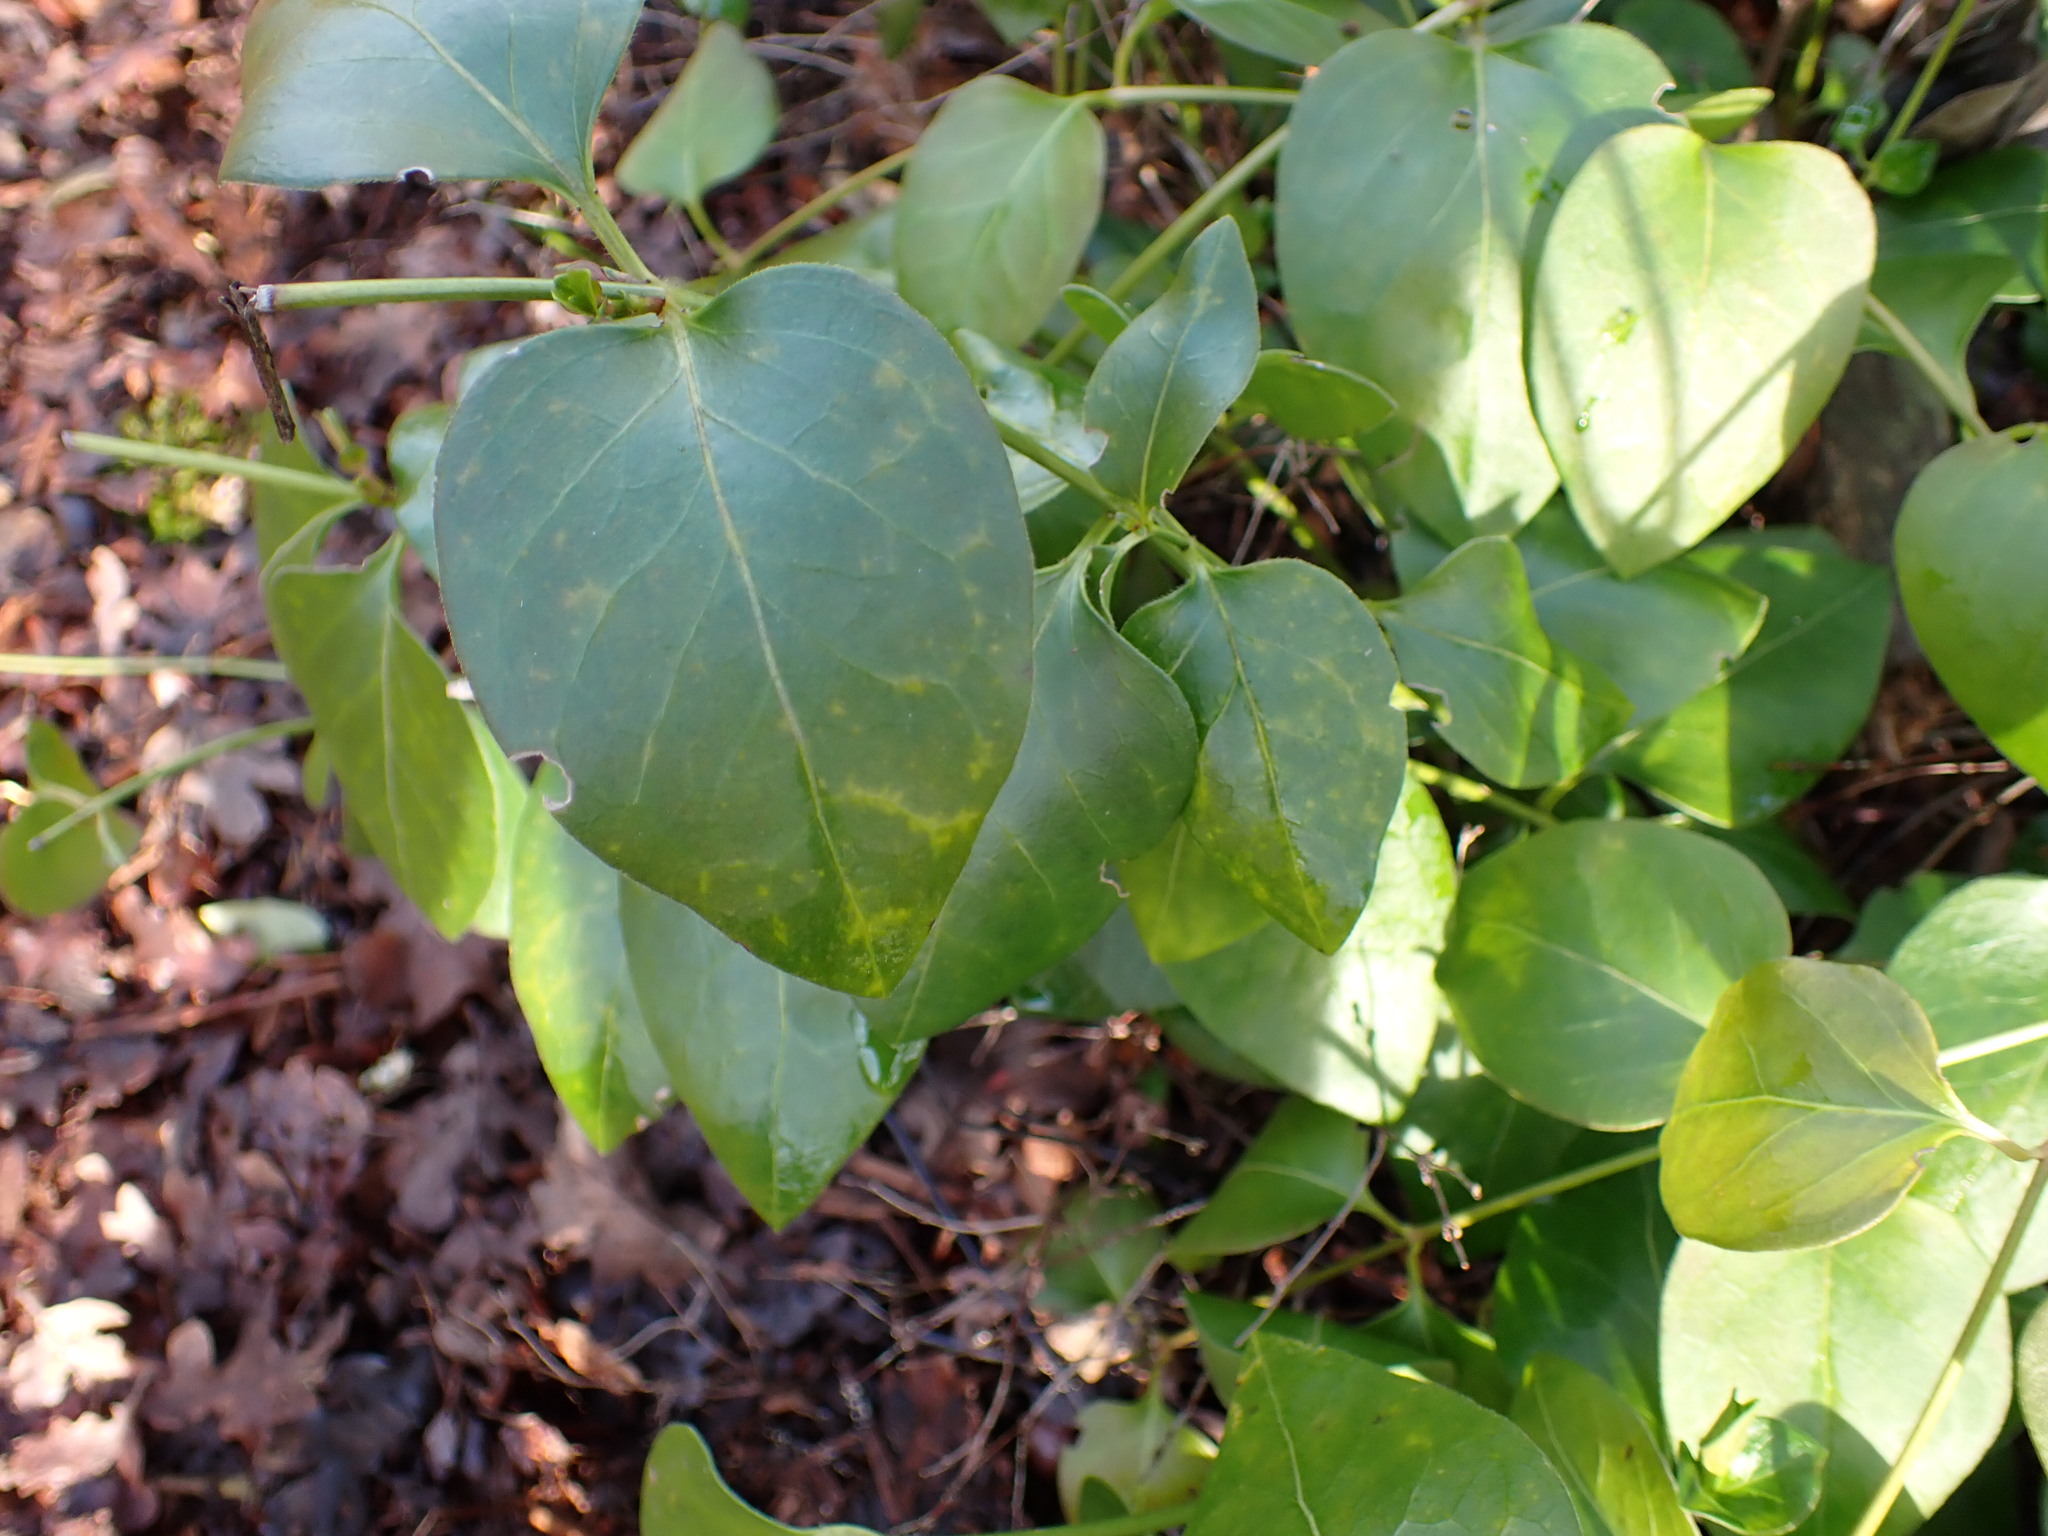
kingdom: Plantae
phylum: Tracheophyta
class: Magnoliopsida
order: Gentianales
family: Apocynaceae
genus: Vinca
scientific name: Vinca major
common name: Greater periwinkle
